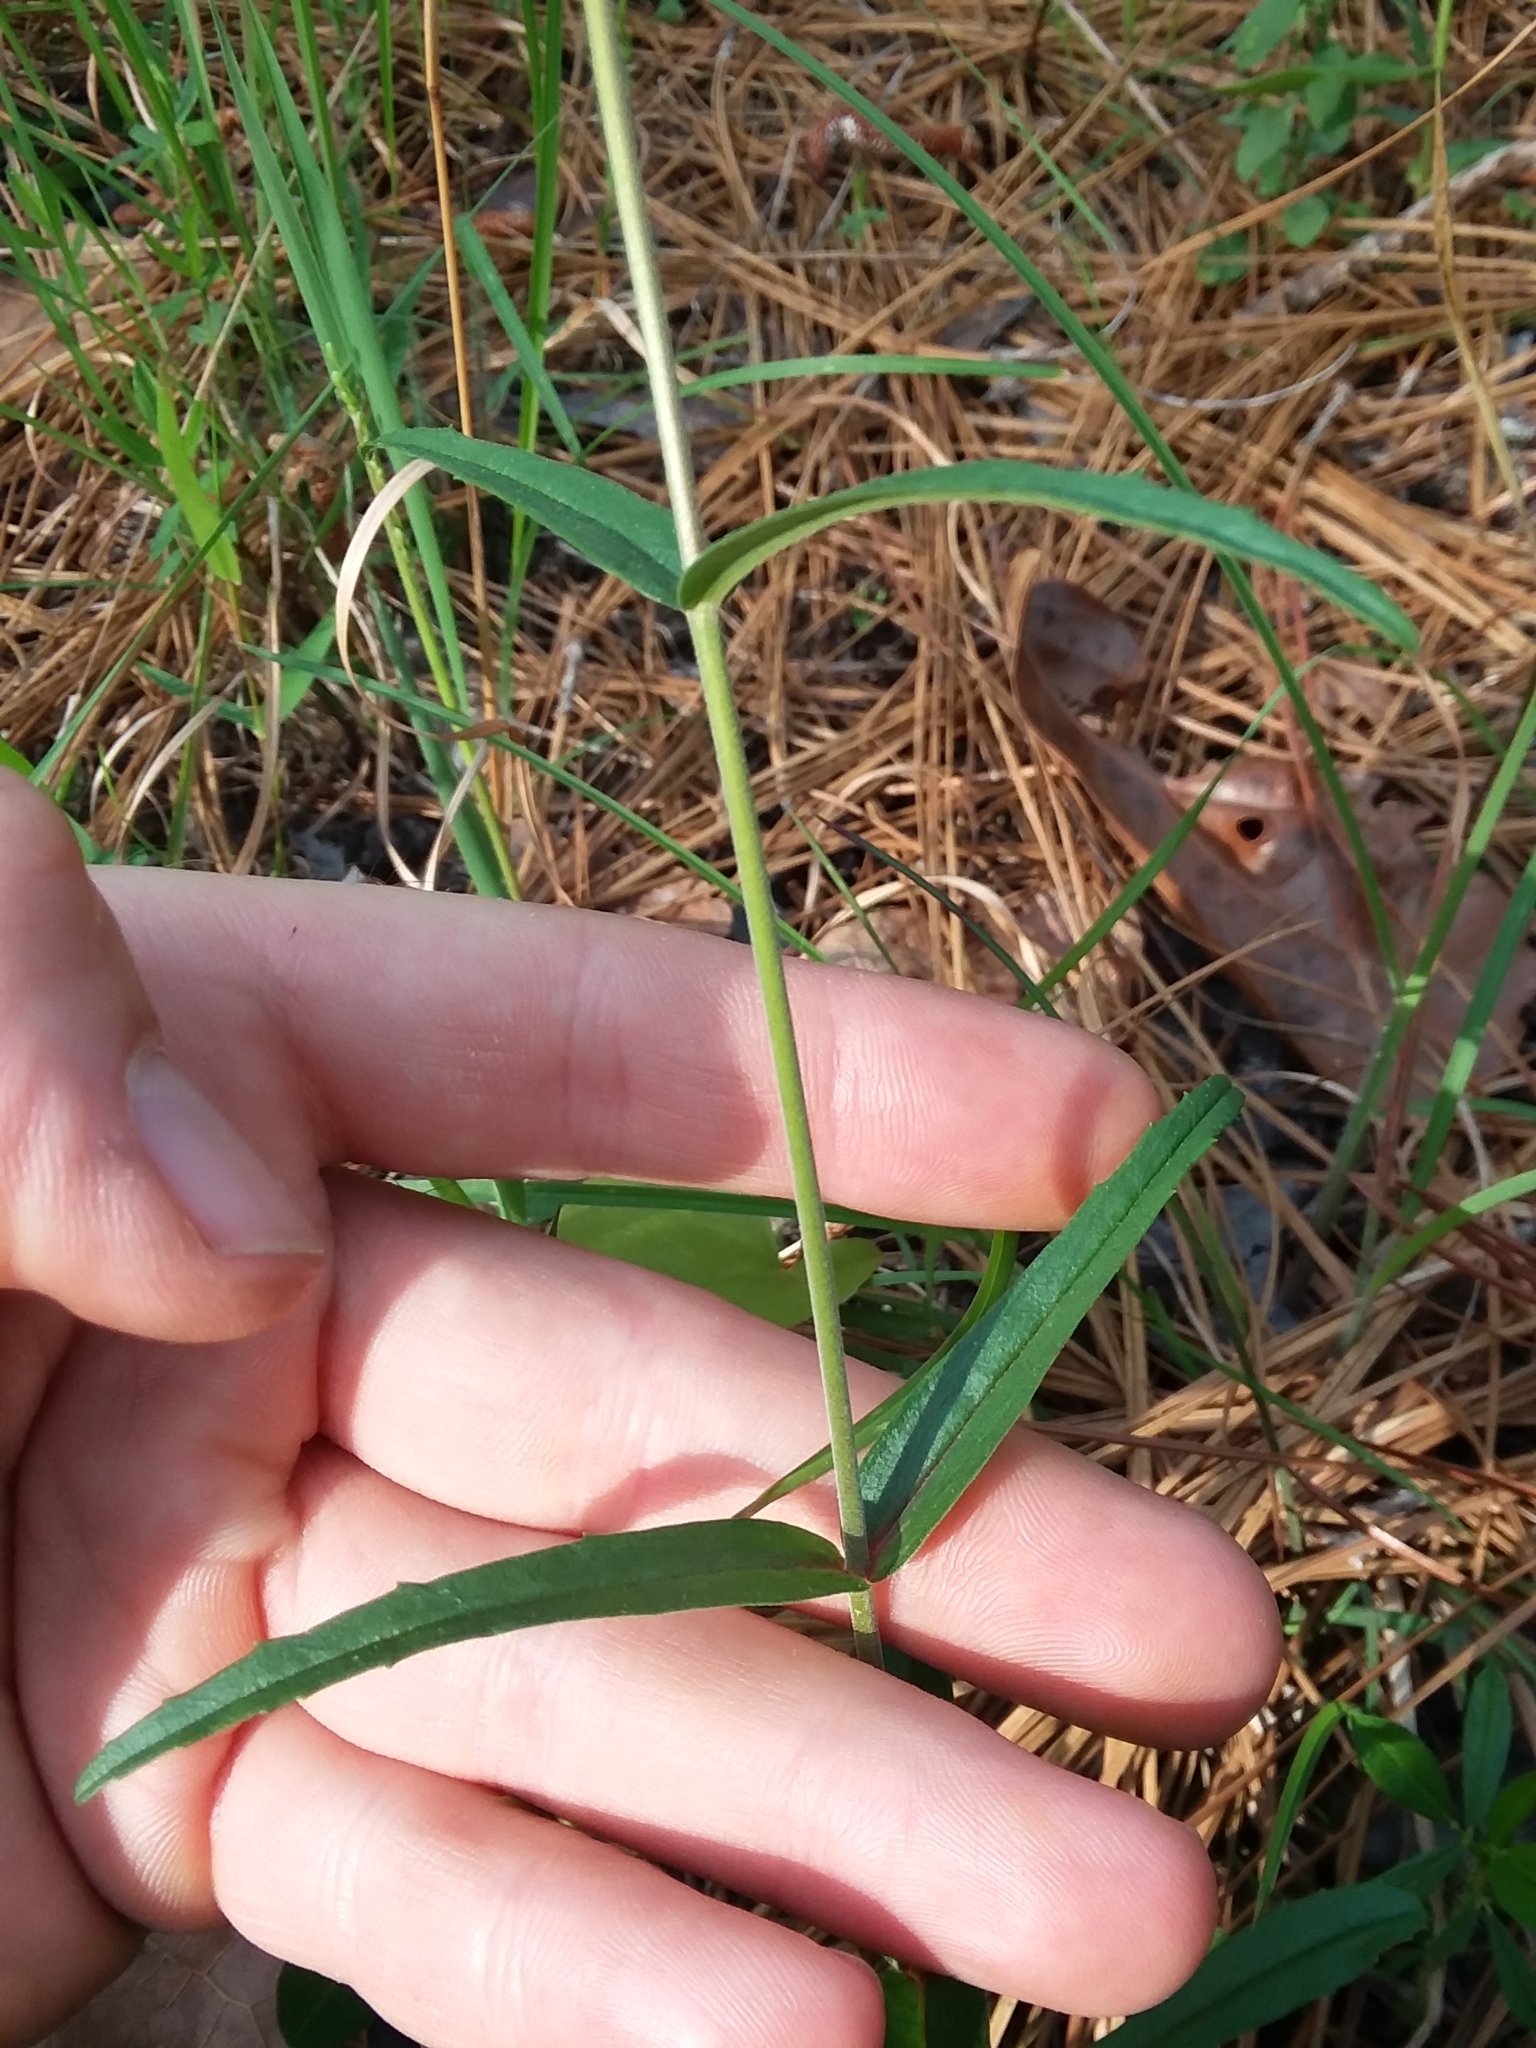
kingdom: Plantae
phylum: Tracheophyta
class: Magnoliopsida
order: Lamiales
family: Plantaginaceae
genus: Penstemon
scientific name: Penstemon laxiflorus
